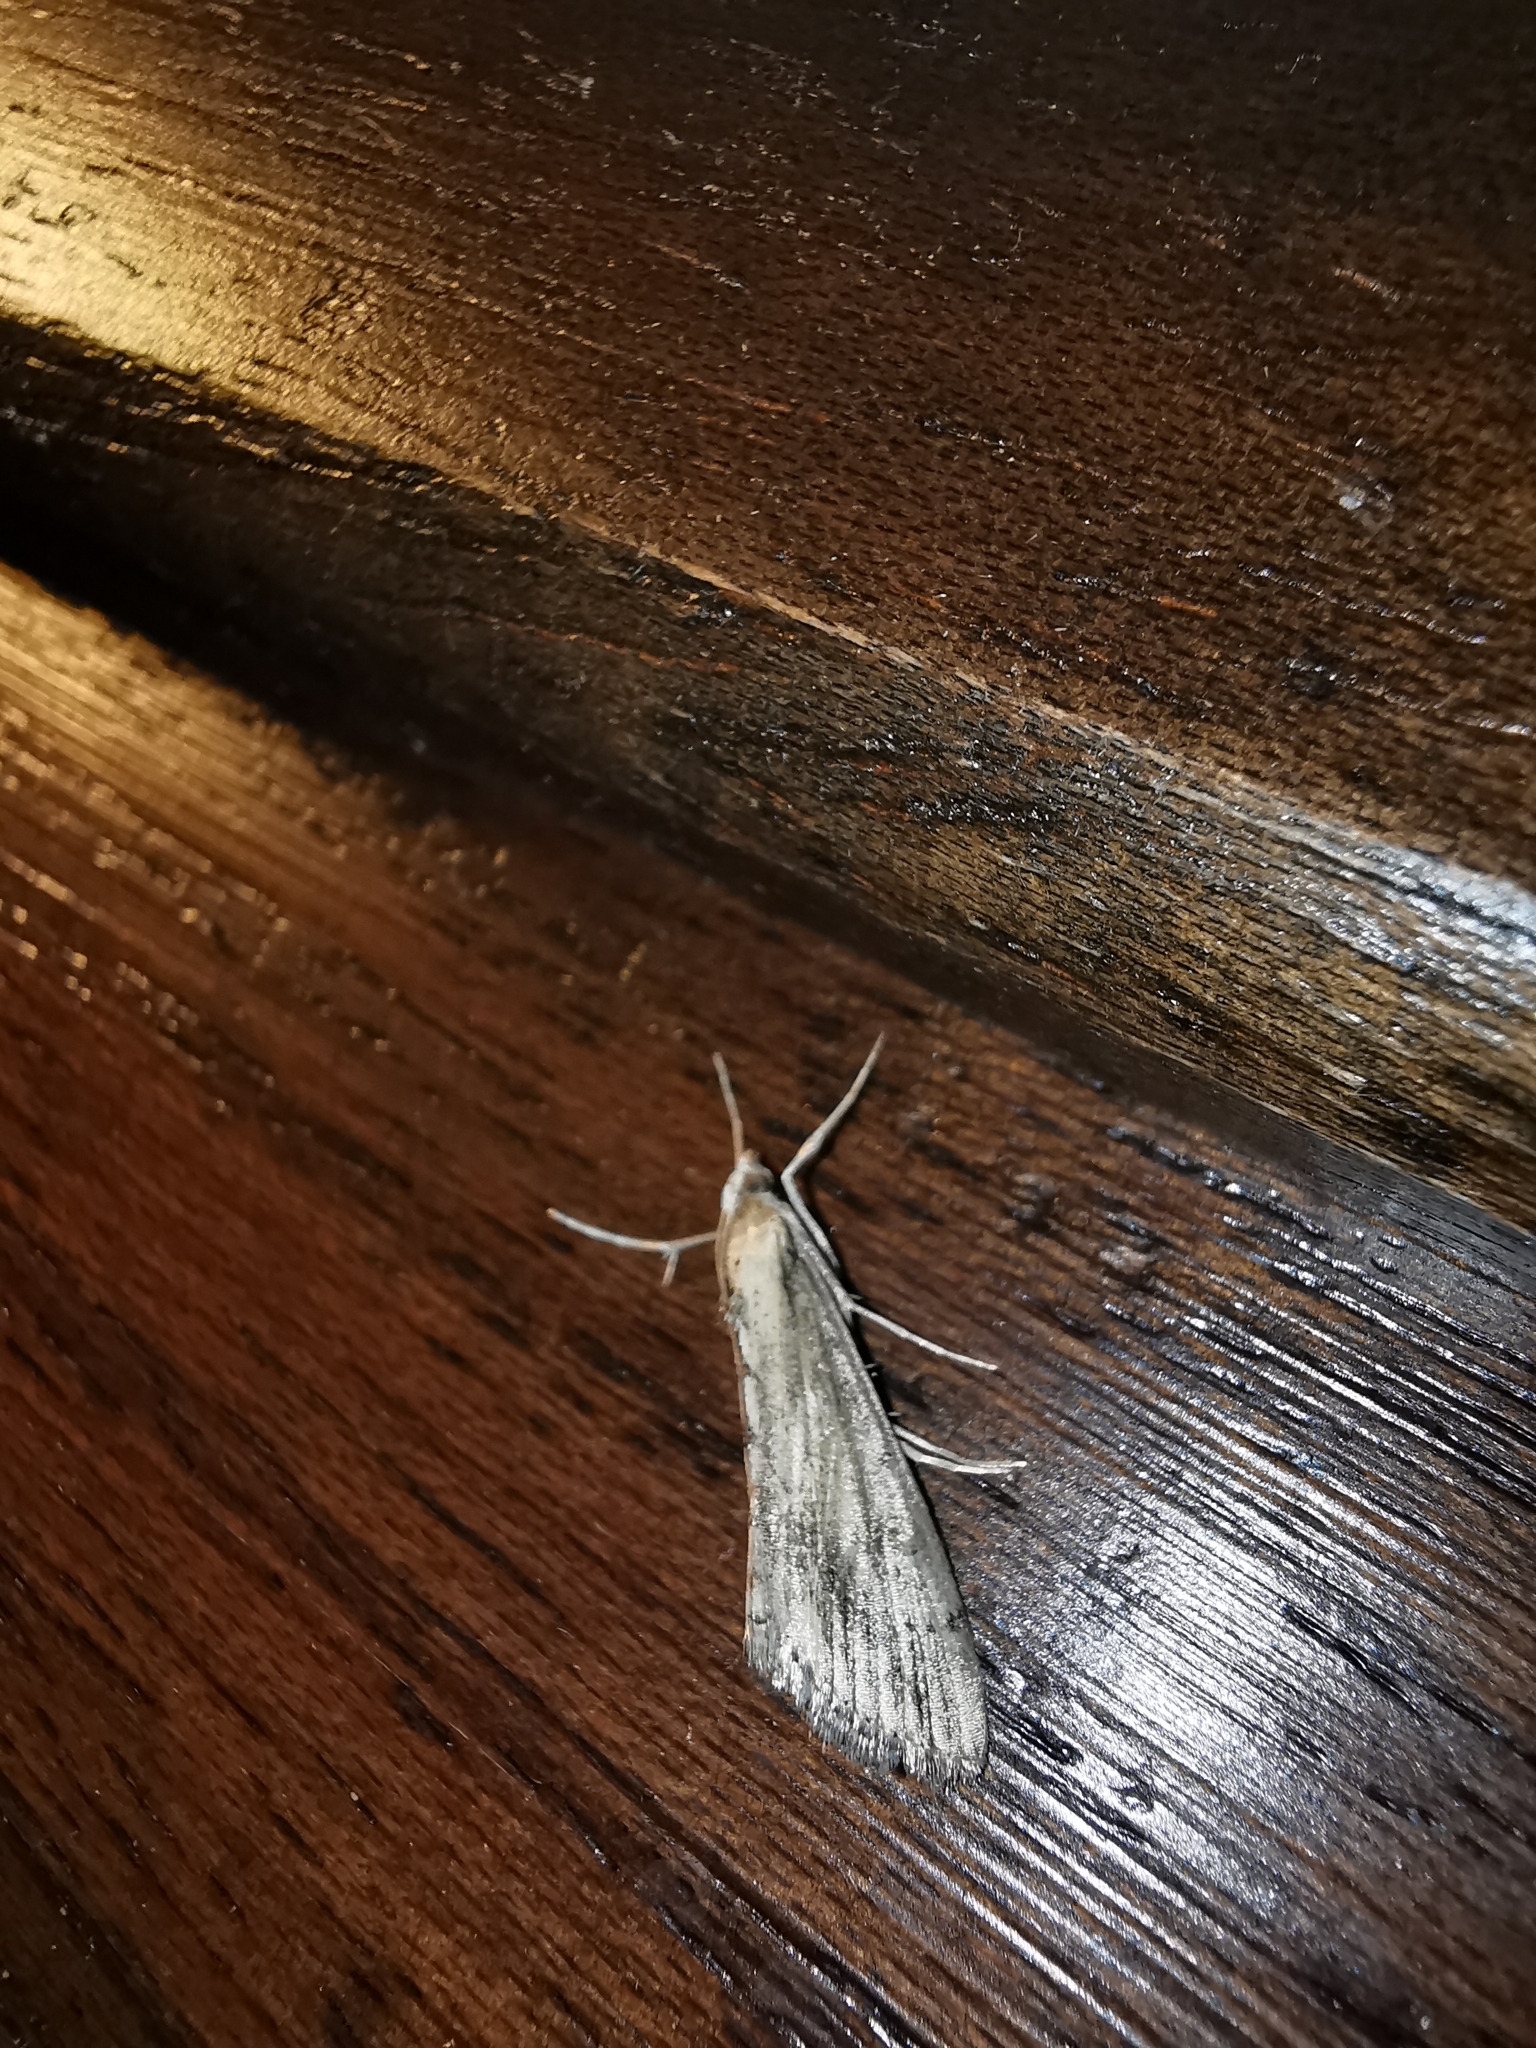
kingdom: Animalia
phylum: Arthropoda
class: Insecta
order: Lepidoptera
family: Crambidae
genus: Evergestis
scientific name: Evergestis isatidalis
